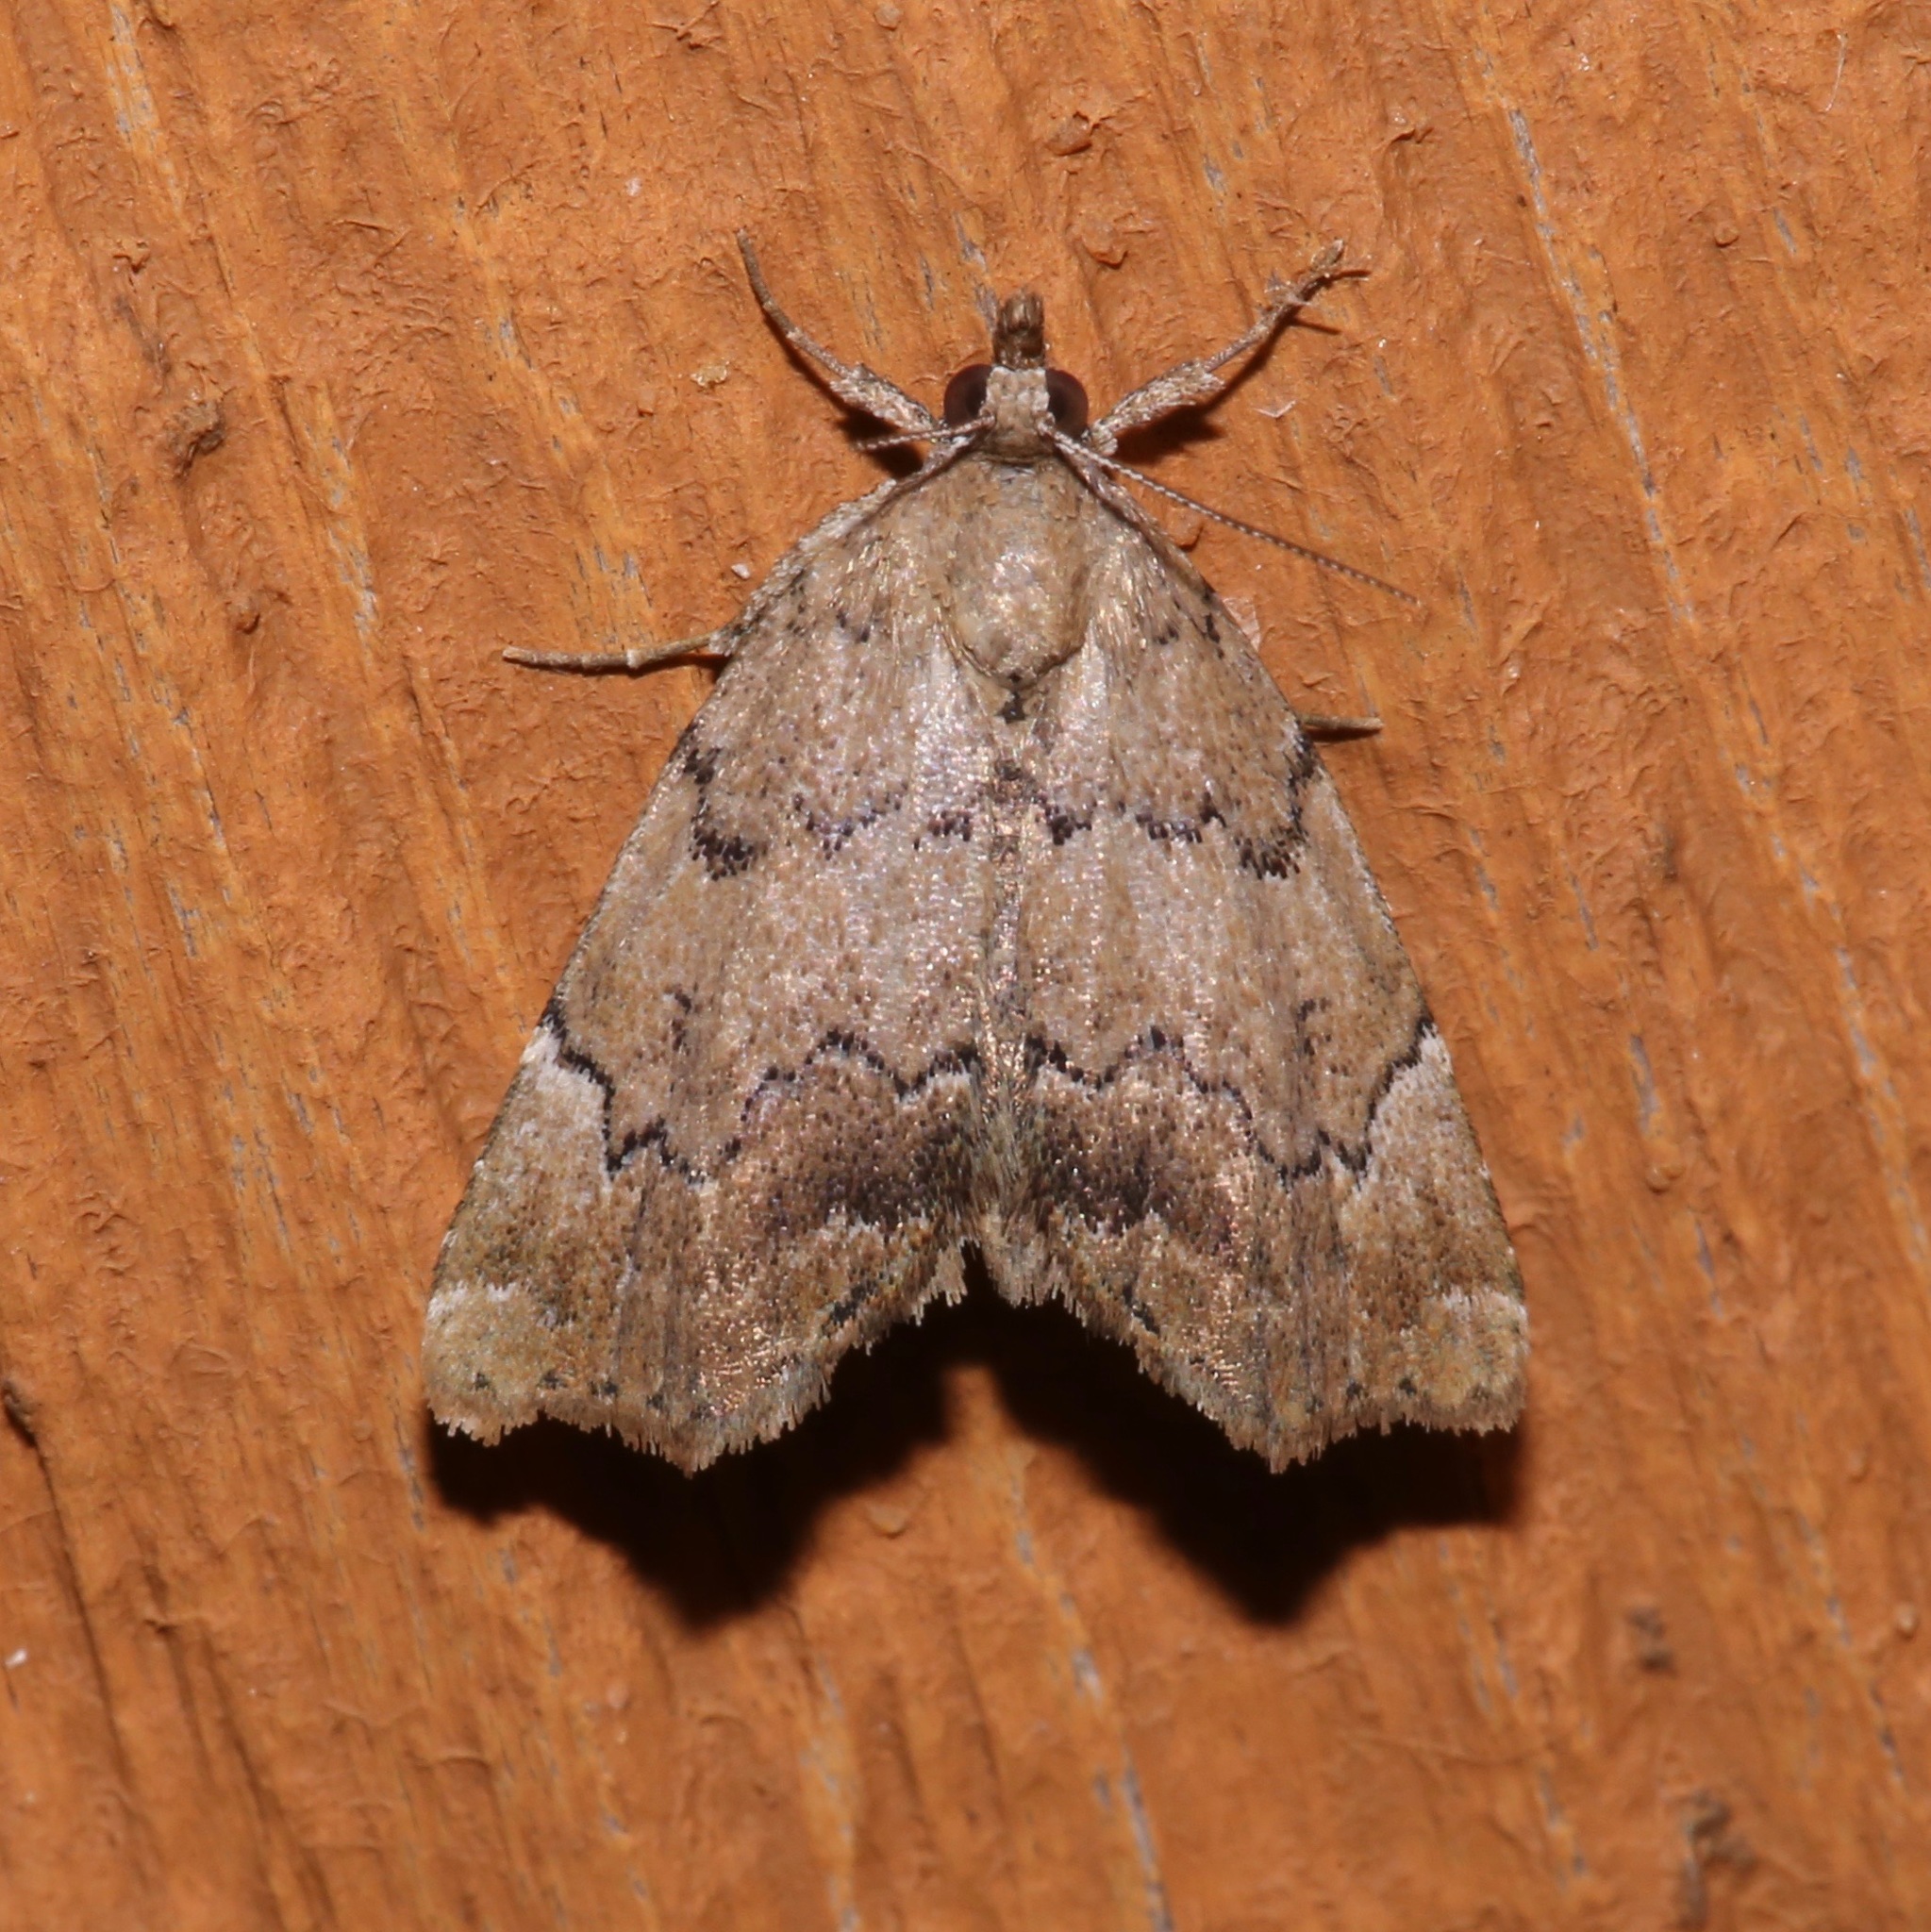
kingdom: Animalia
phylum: Arthropoda
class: Insecta
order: Lepidoptera
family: Erebidae
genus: Cutina
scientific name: Cutina aluticolor
